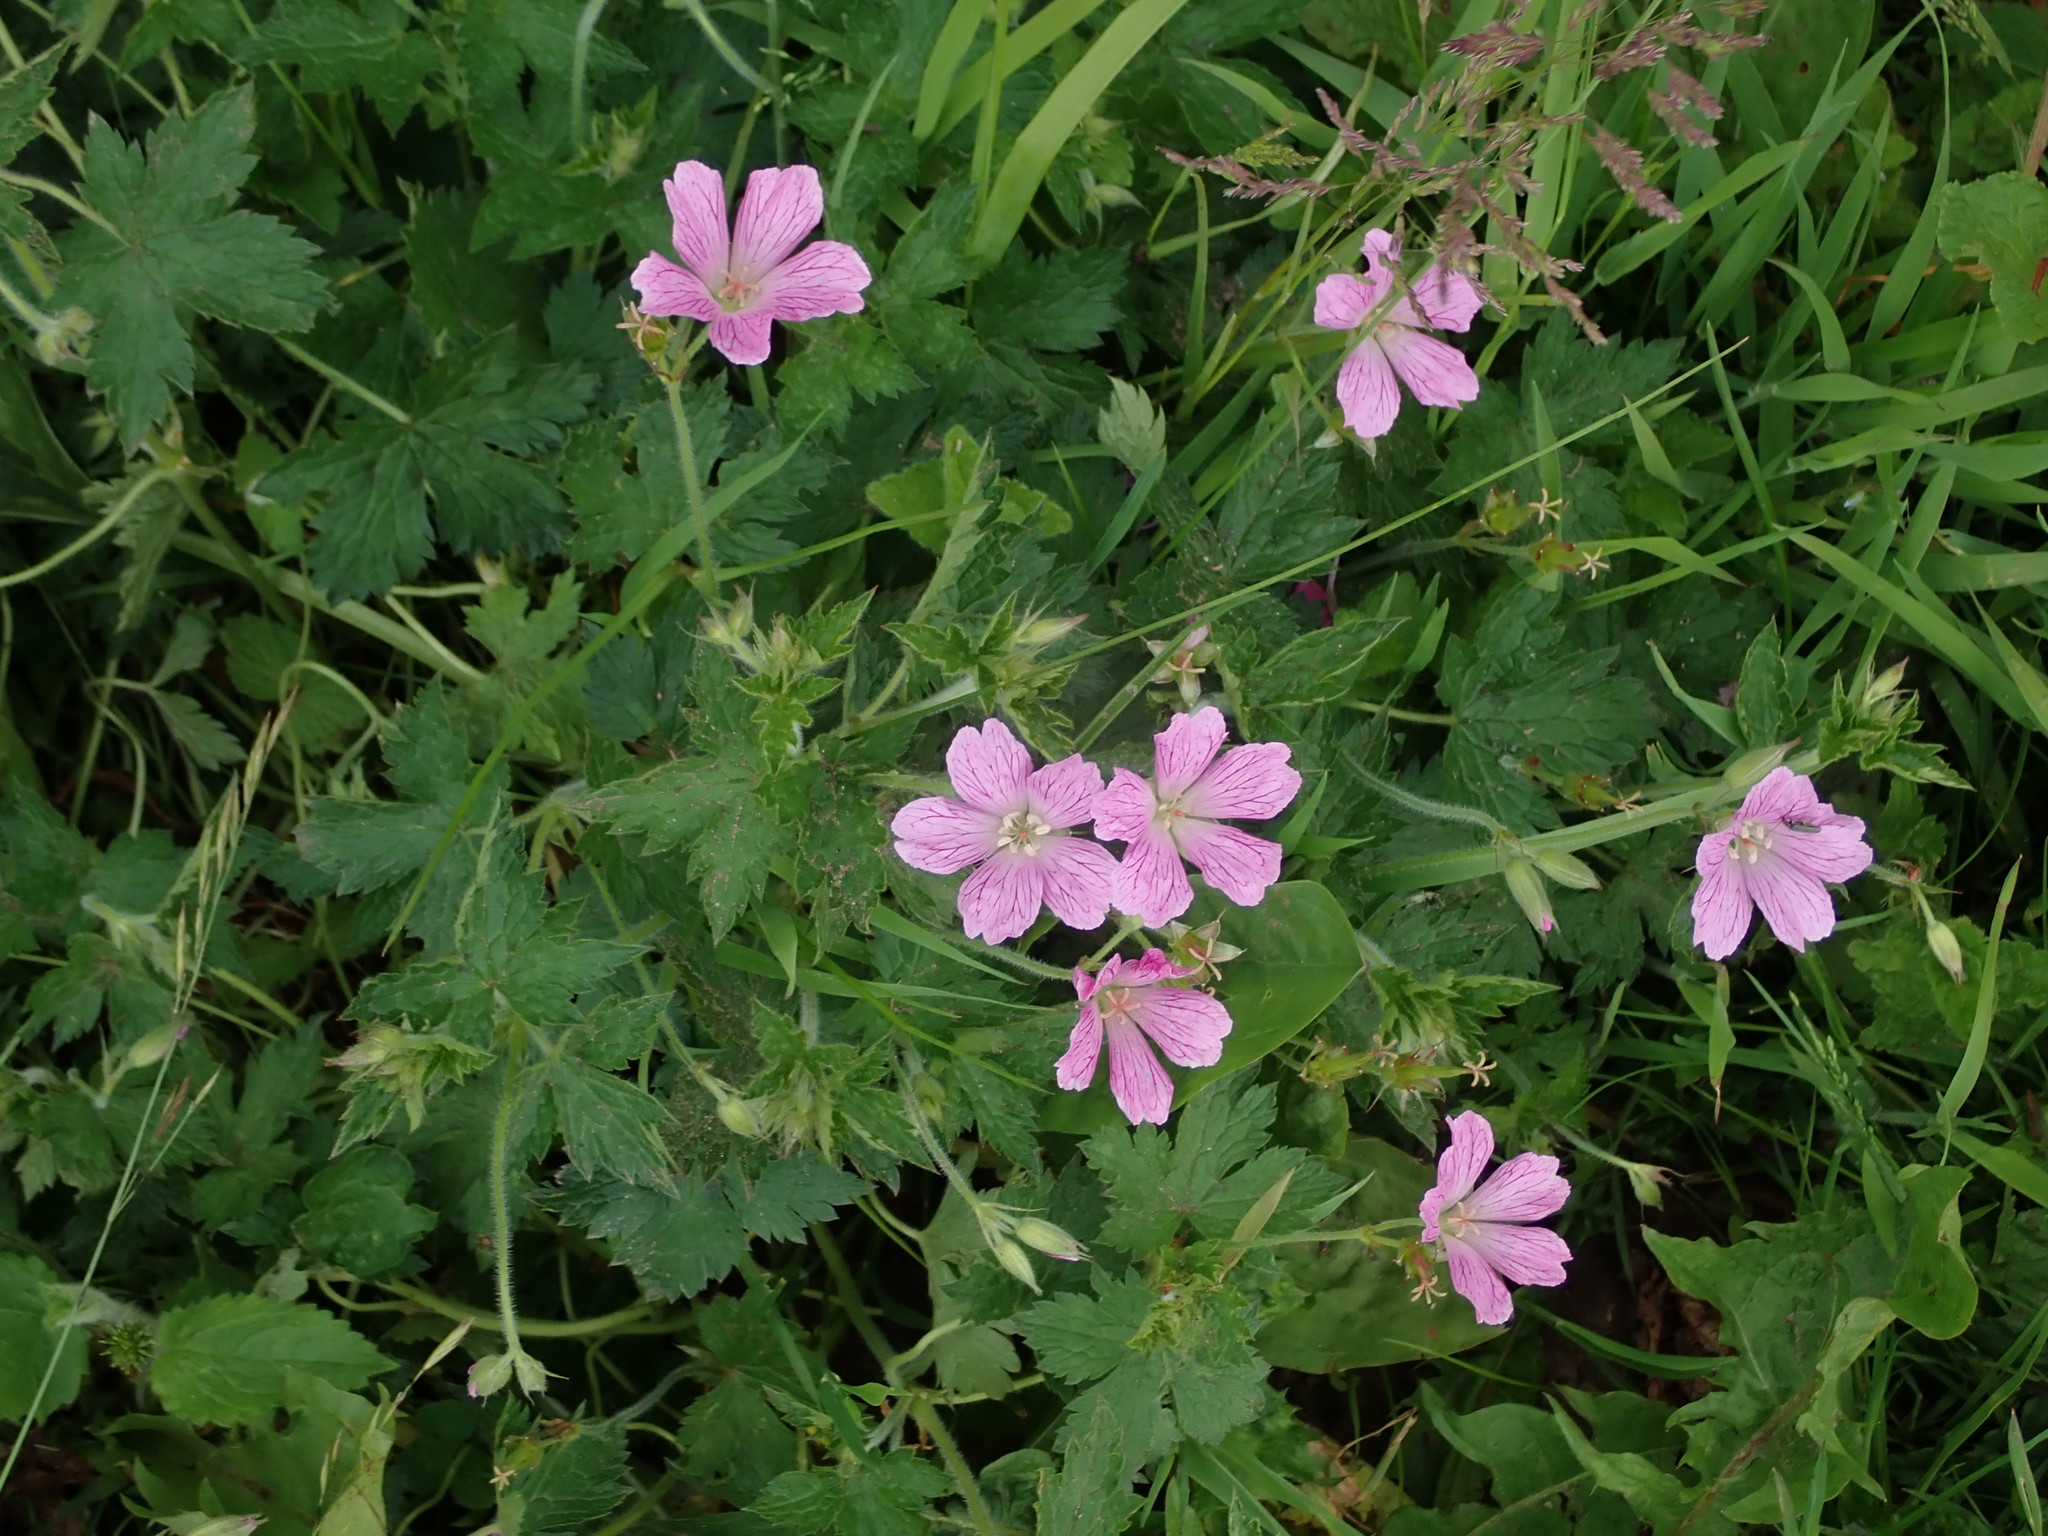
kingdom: Plantae
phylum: Tracheophyta
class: Magnoliopsida
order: Geraniales
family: Geraniaceae
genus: Geranium
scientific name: Geranium oxonianum
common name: Druce's crane's-bill
